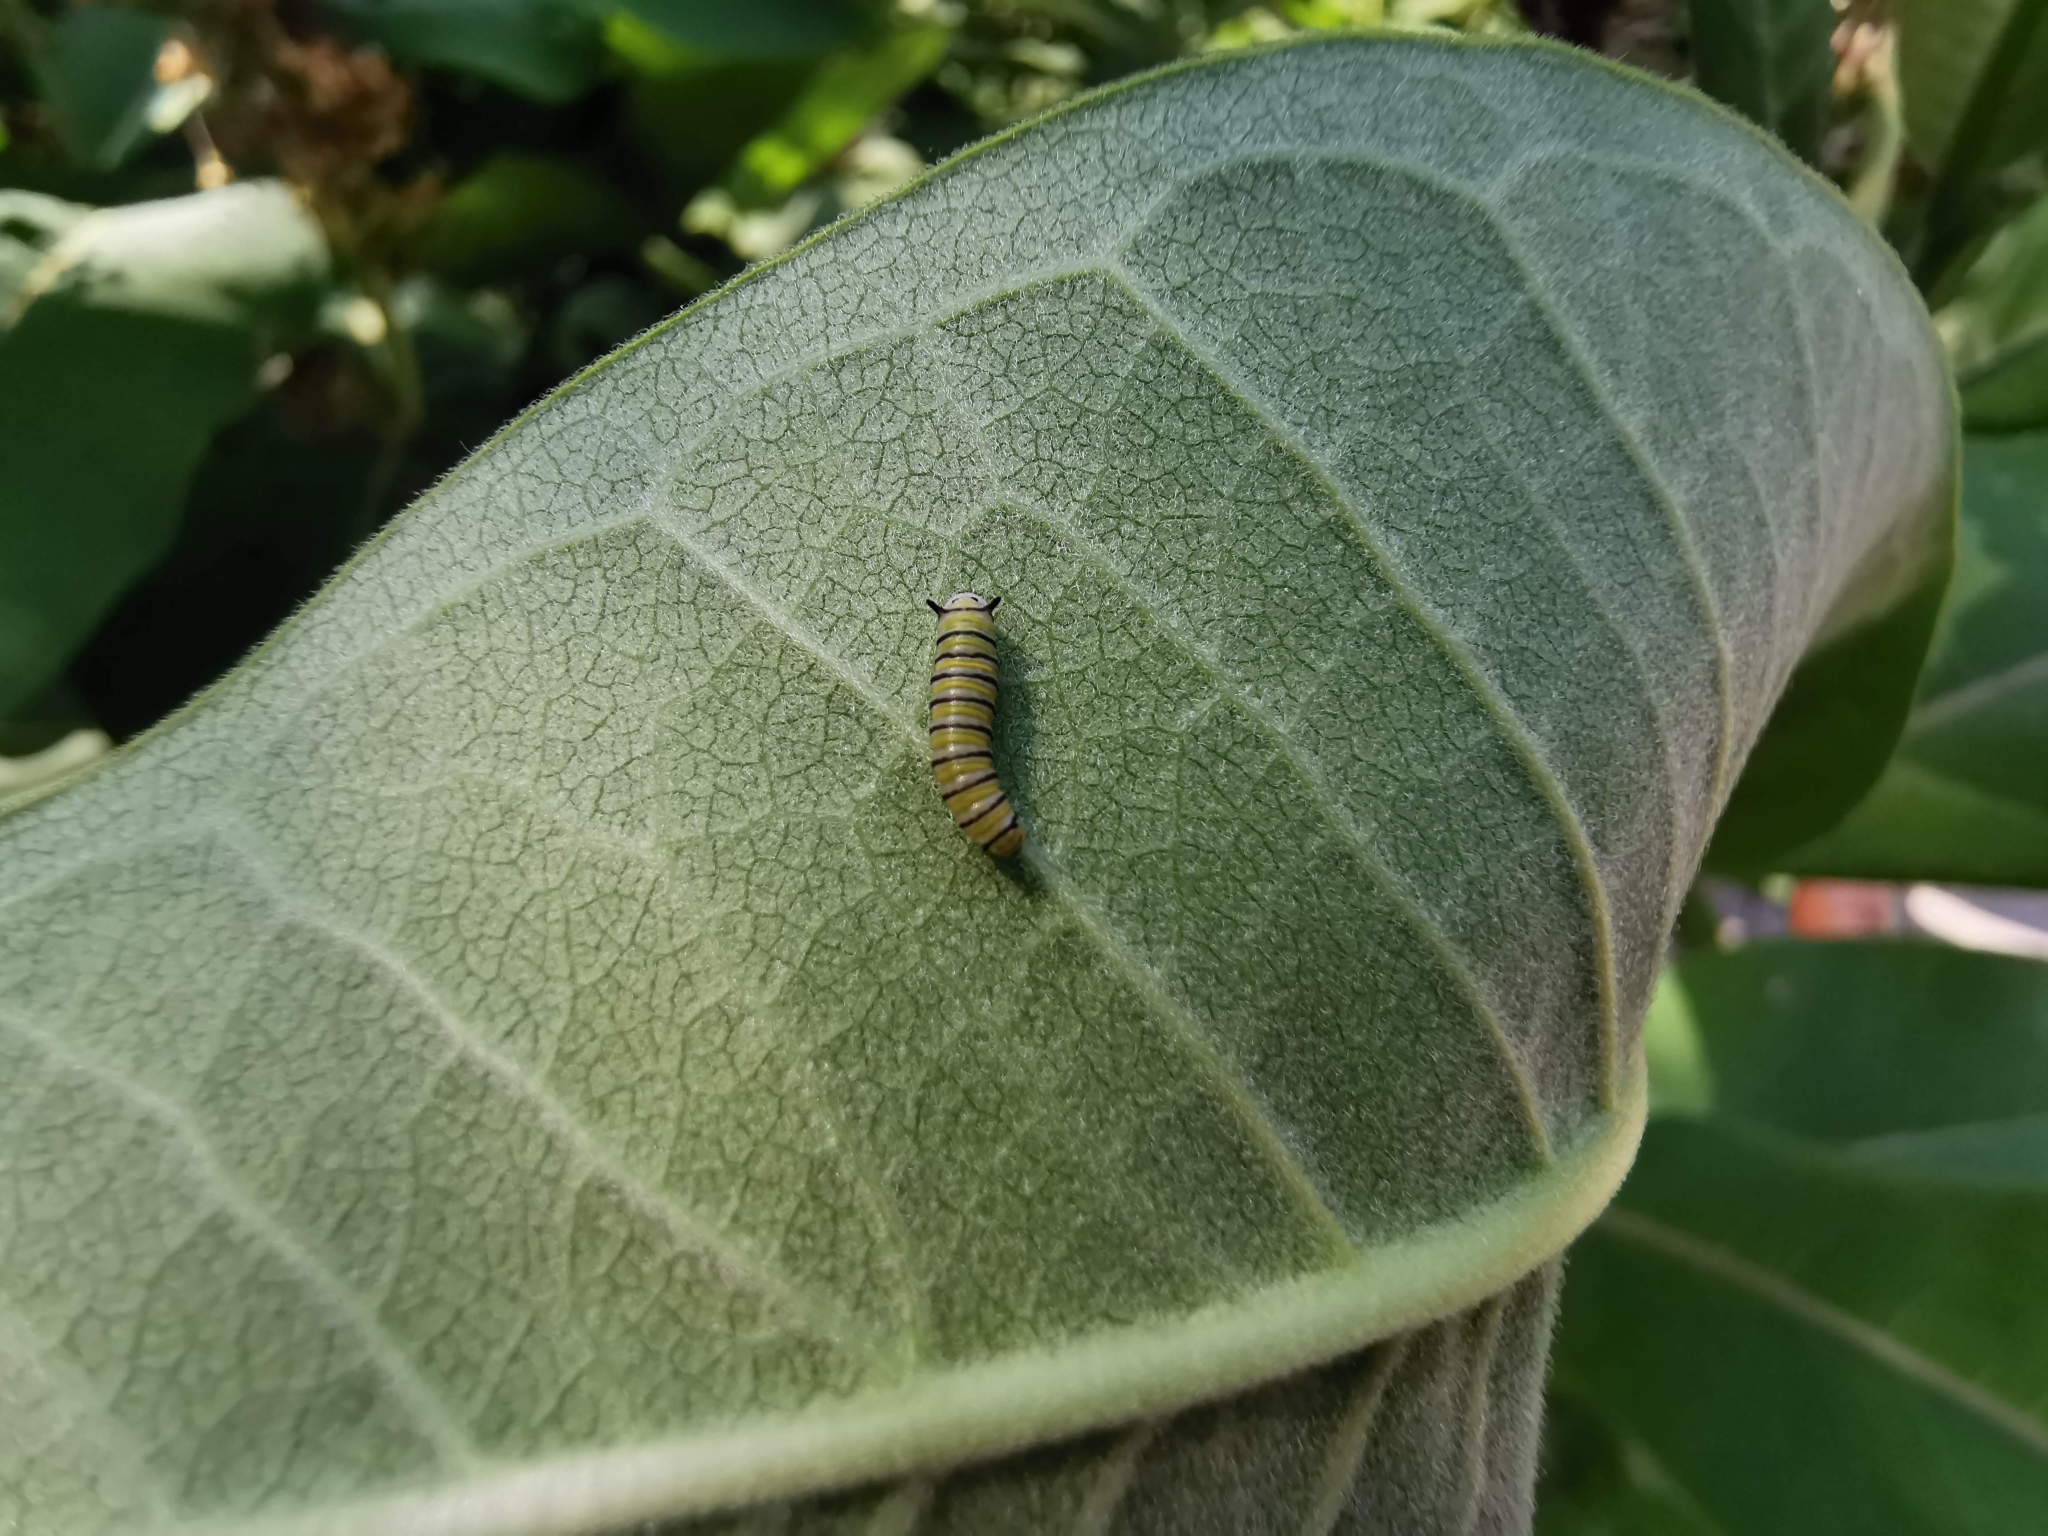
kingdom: Animalia
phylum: Arthropoda
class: Insecta
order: Lepidoptera
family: Nymphalidae
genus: Danaus
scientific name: Danaus plexippus
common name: Monarch
